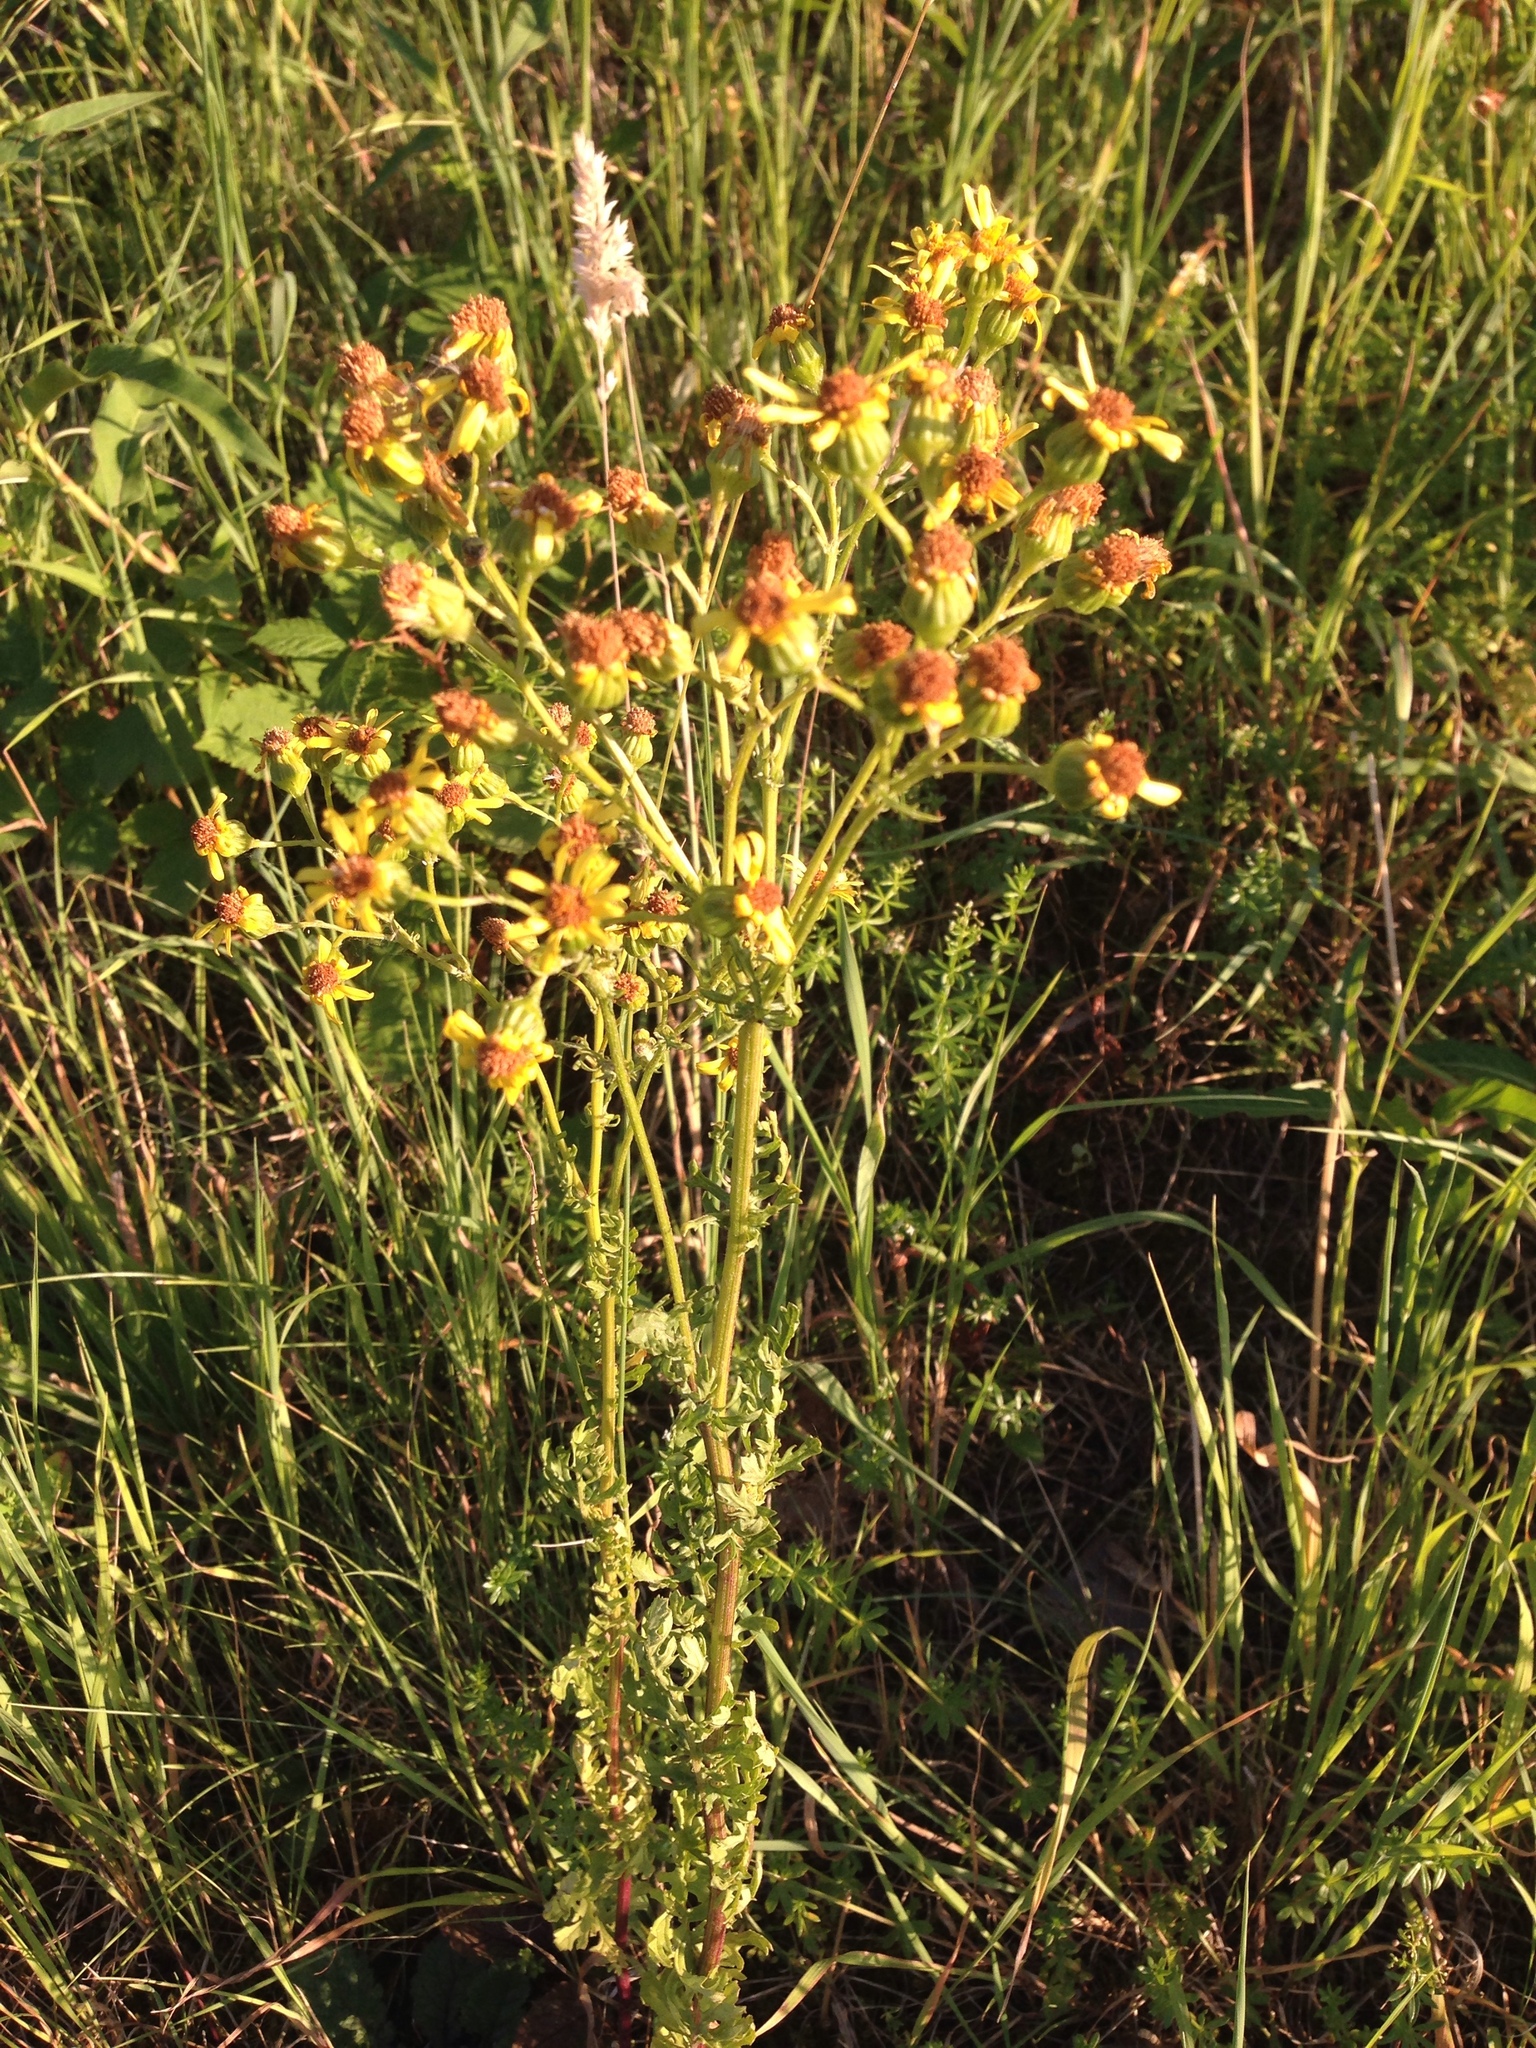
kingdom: Plantae
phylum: Tracheophyta
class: Magnoliopsida
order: Asterales
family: Asteraceae
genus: Jacobaea
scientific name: Jacobaea vulgaris
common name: Stinking willie
